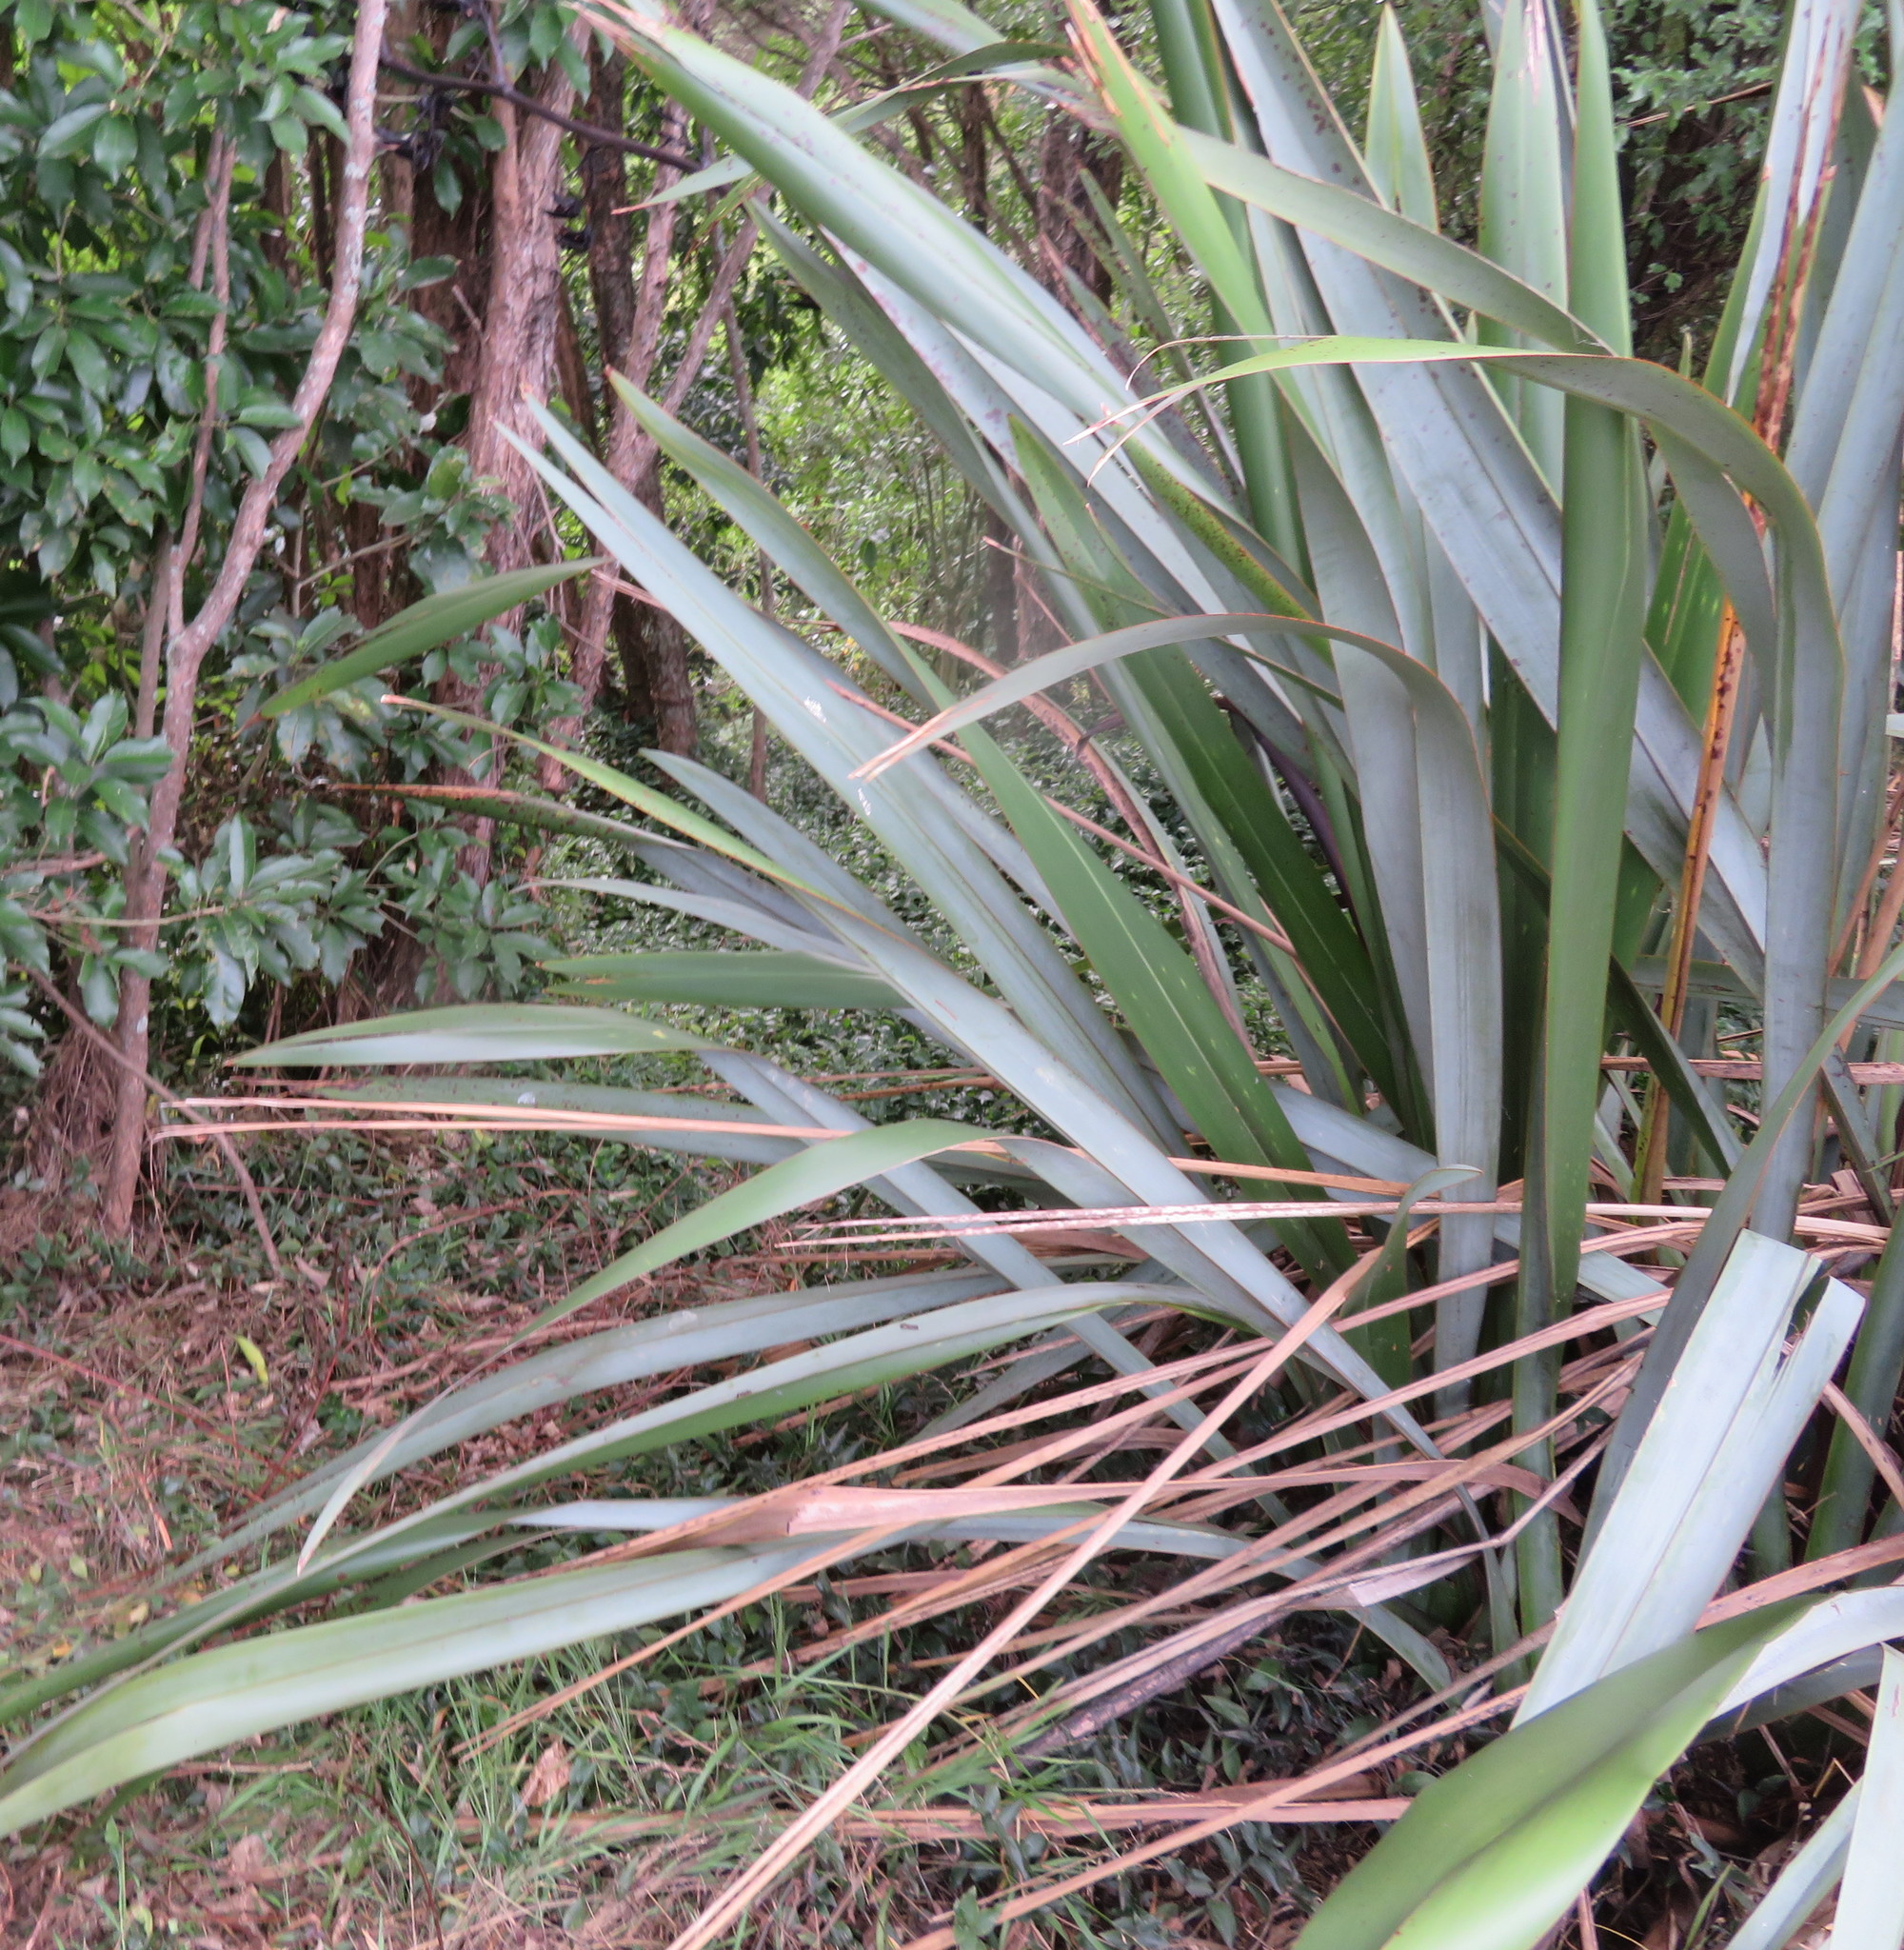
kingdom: Plantae
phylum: Tracheophyta
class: Liliopsida
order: Poales
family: Poaceae
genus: Ehrharta
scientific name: Ehrharta erecta
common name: Panic veldtgrass
